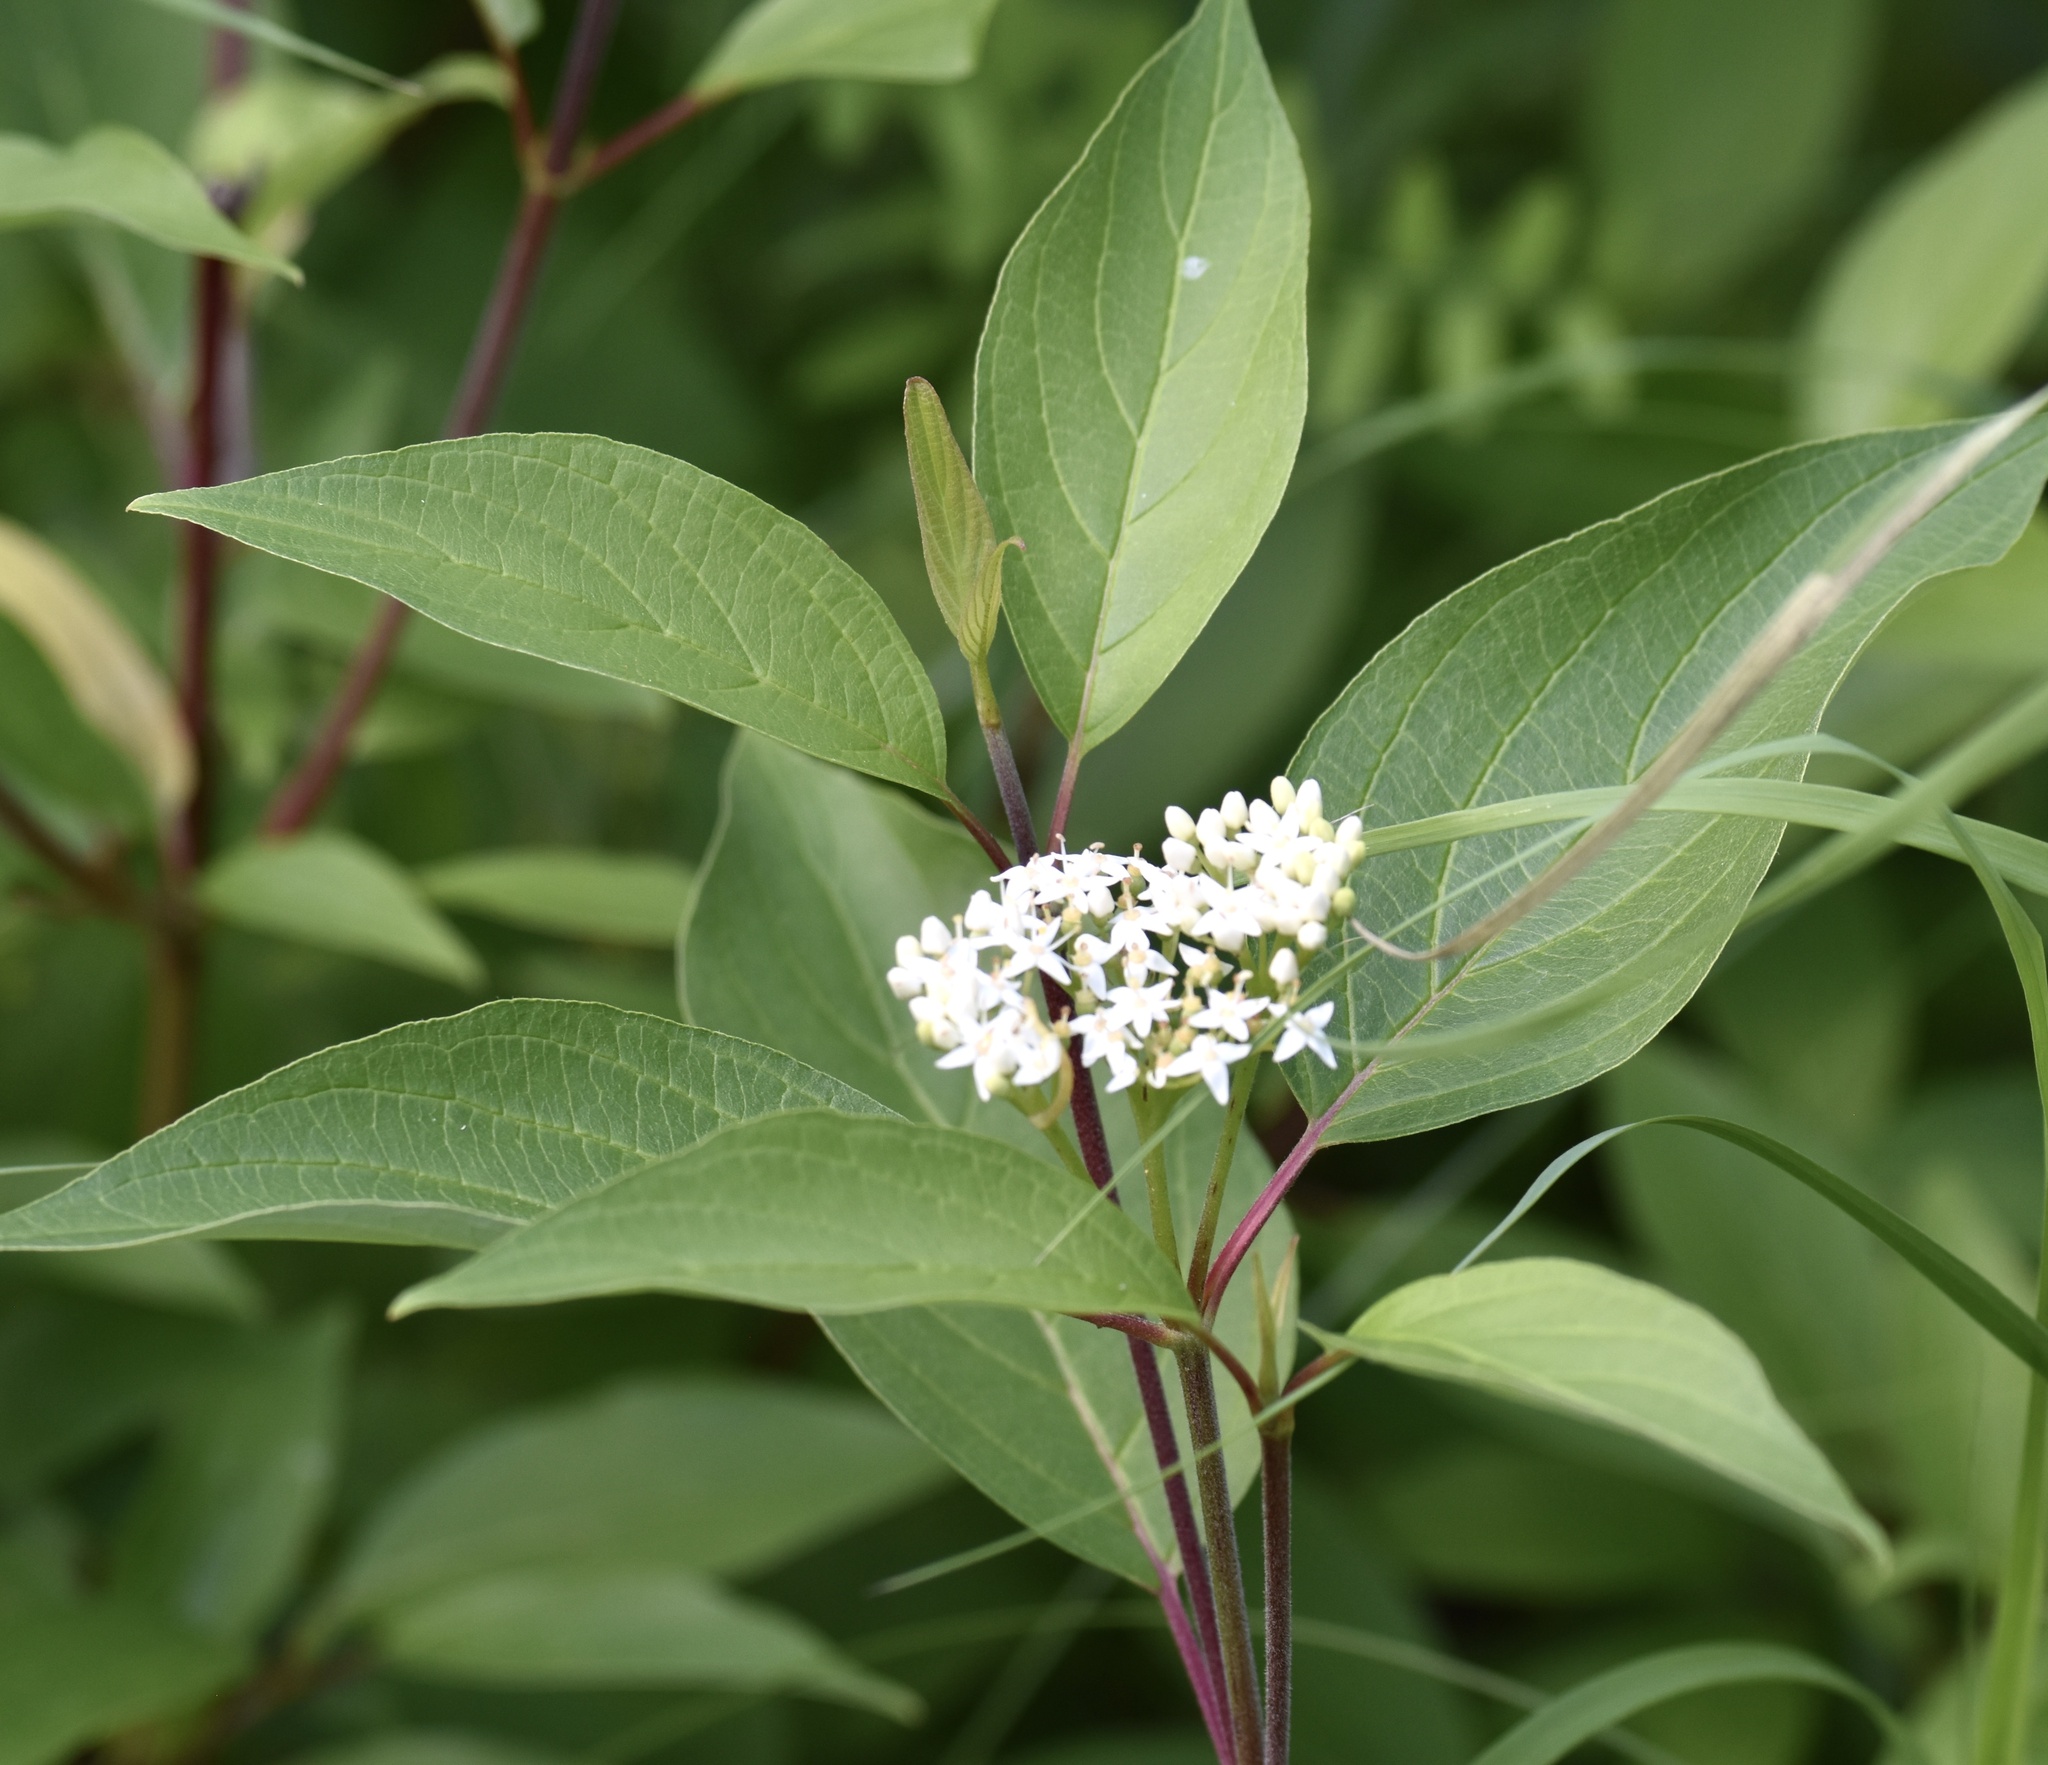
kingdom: Plantae
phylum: Tracheophyta
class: Magnoliopsida
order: Cornales
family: Cornaceae
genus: Cornus
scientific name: Cornus sericea
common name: Red-osier dogwood
